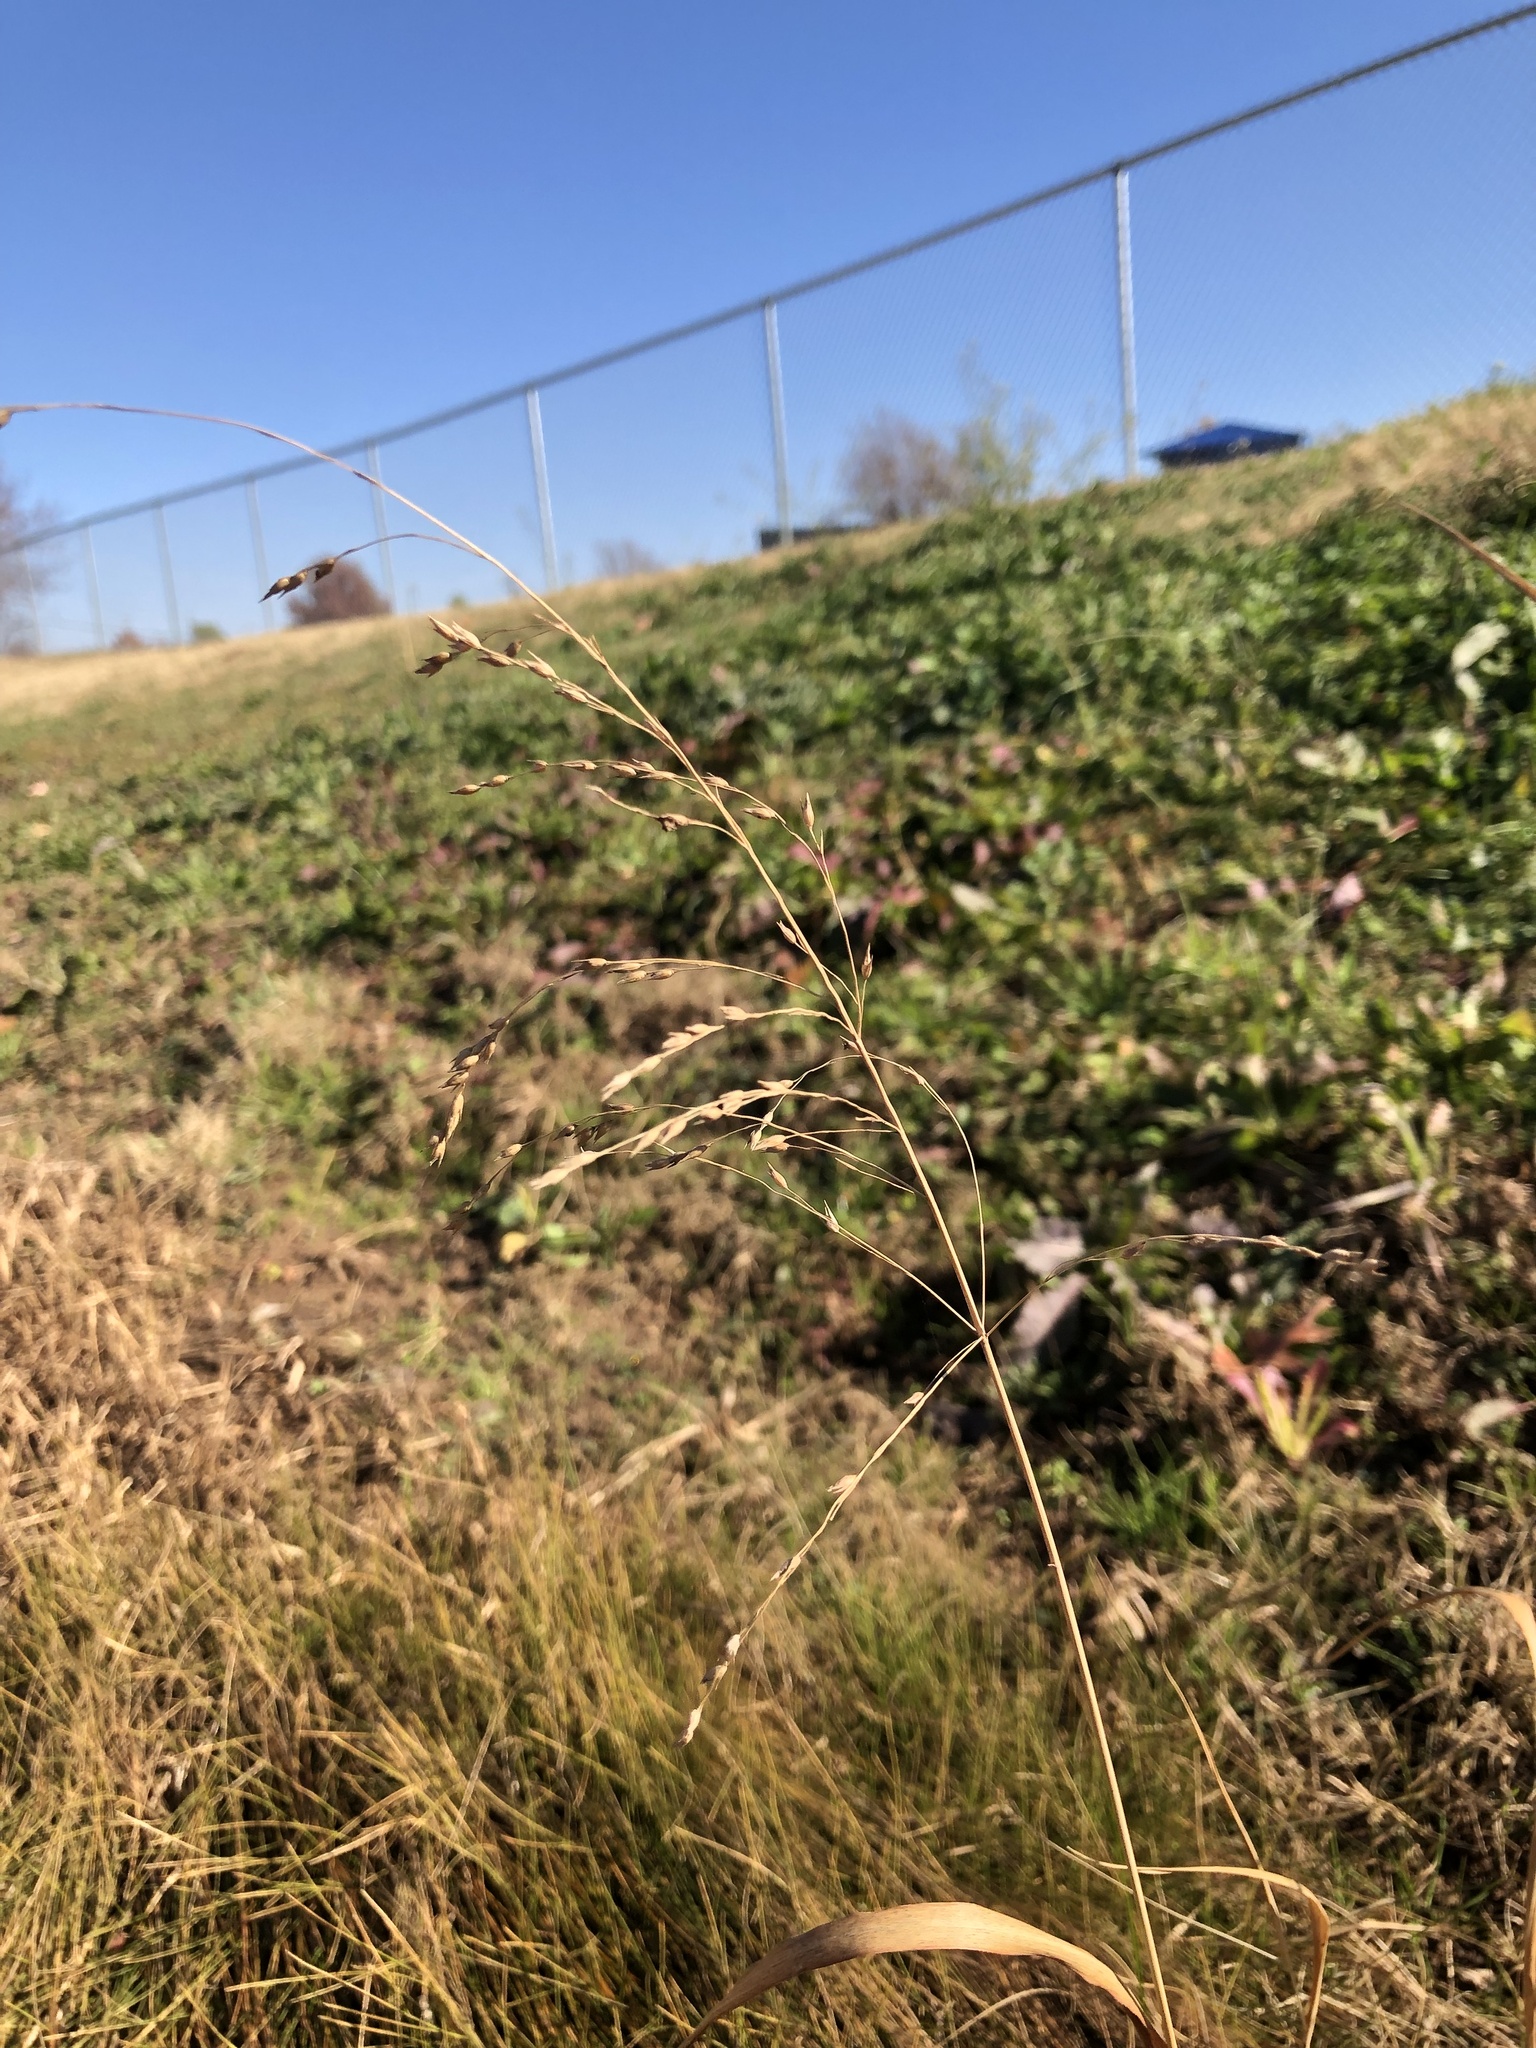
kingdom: Plantae
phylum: Tracheophyta
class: Liliopsida
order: Poales
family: Poaceae
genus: Panicum
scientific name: Panicum virgatum
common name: Switchgrass
